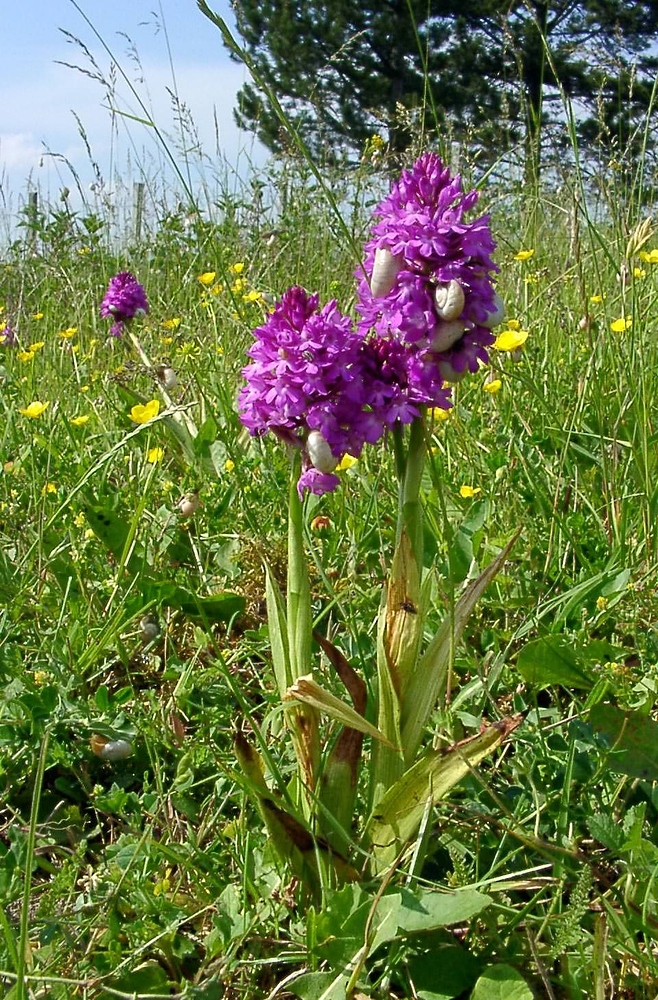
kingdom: Plantae
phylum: Tracheophyta
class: Liliopsida
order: Asparagales
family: Orchidaceae
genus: Anacamptis
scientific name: Anacamptis pyramidalis
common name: Pyramidal orchid
